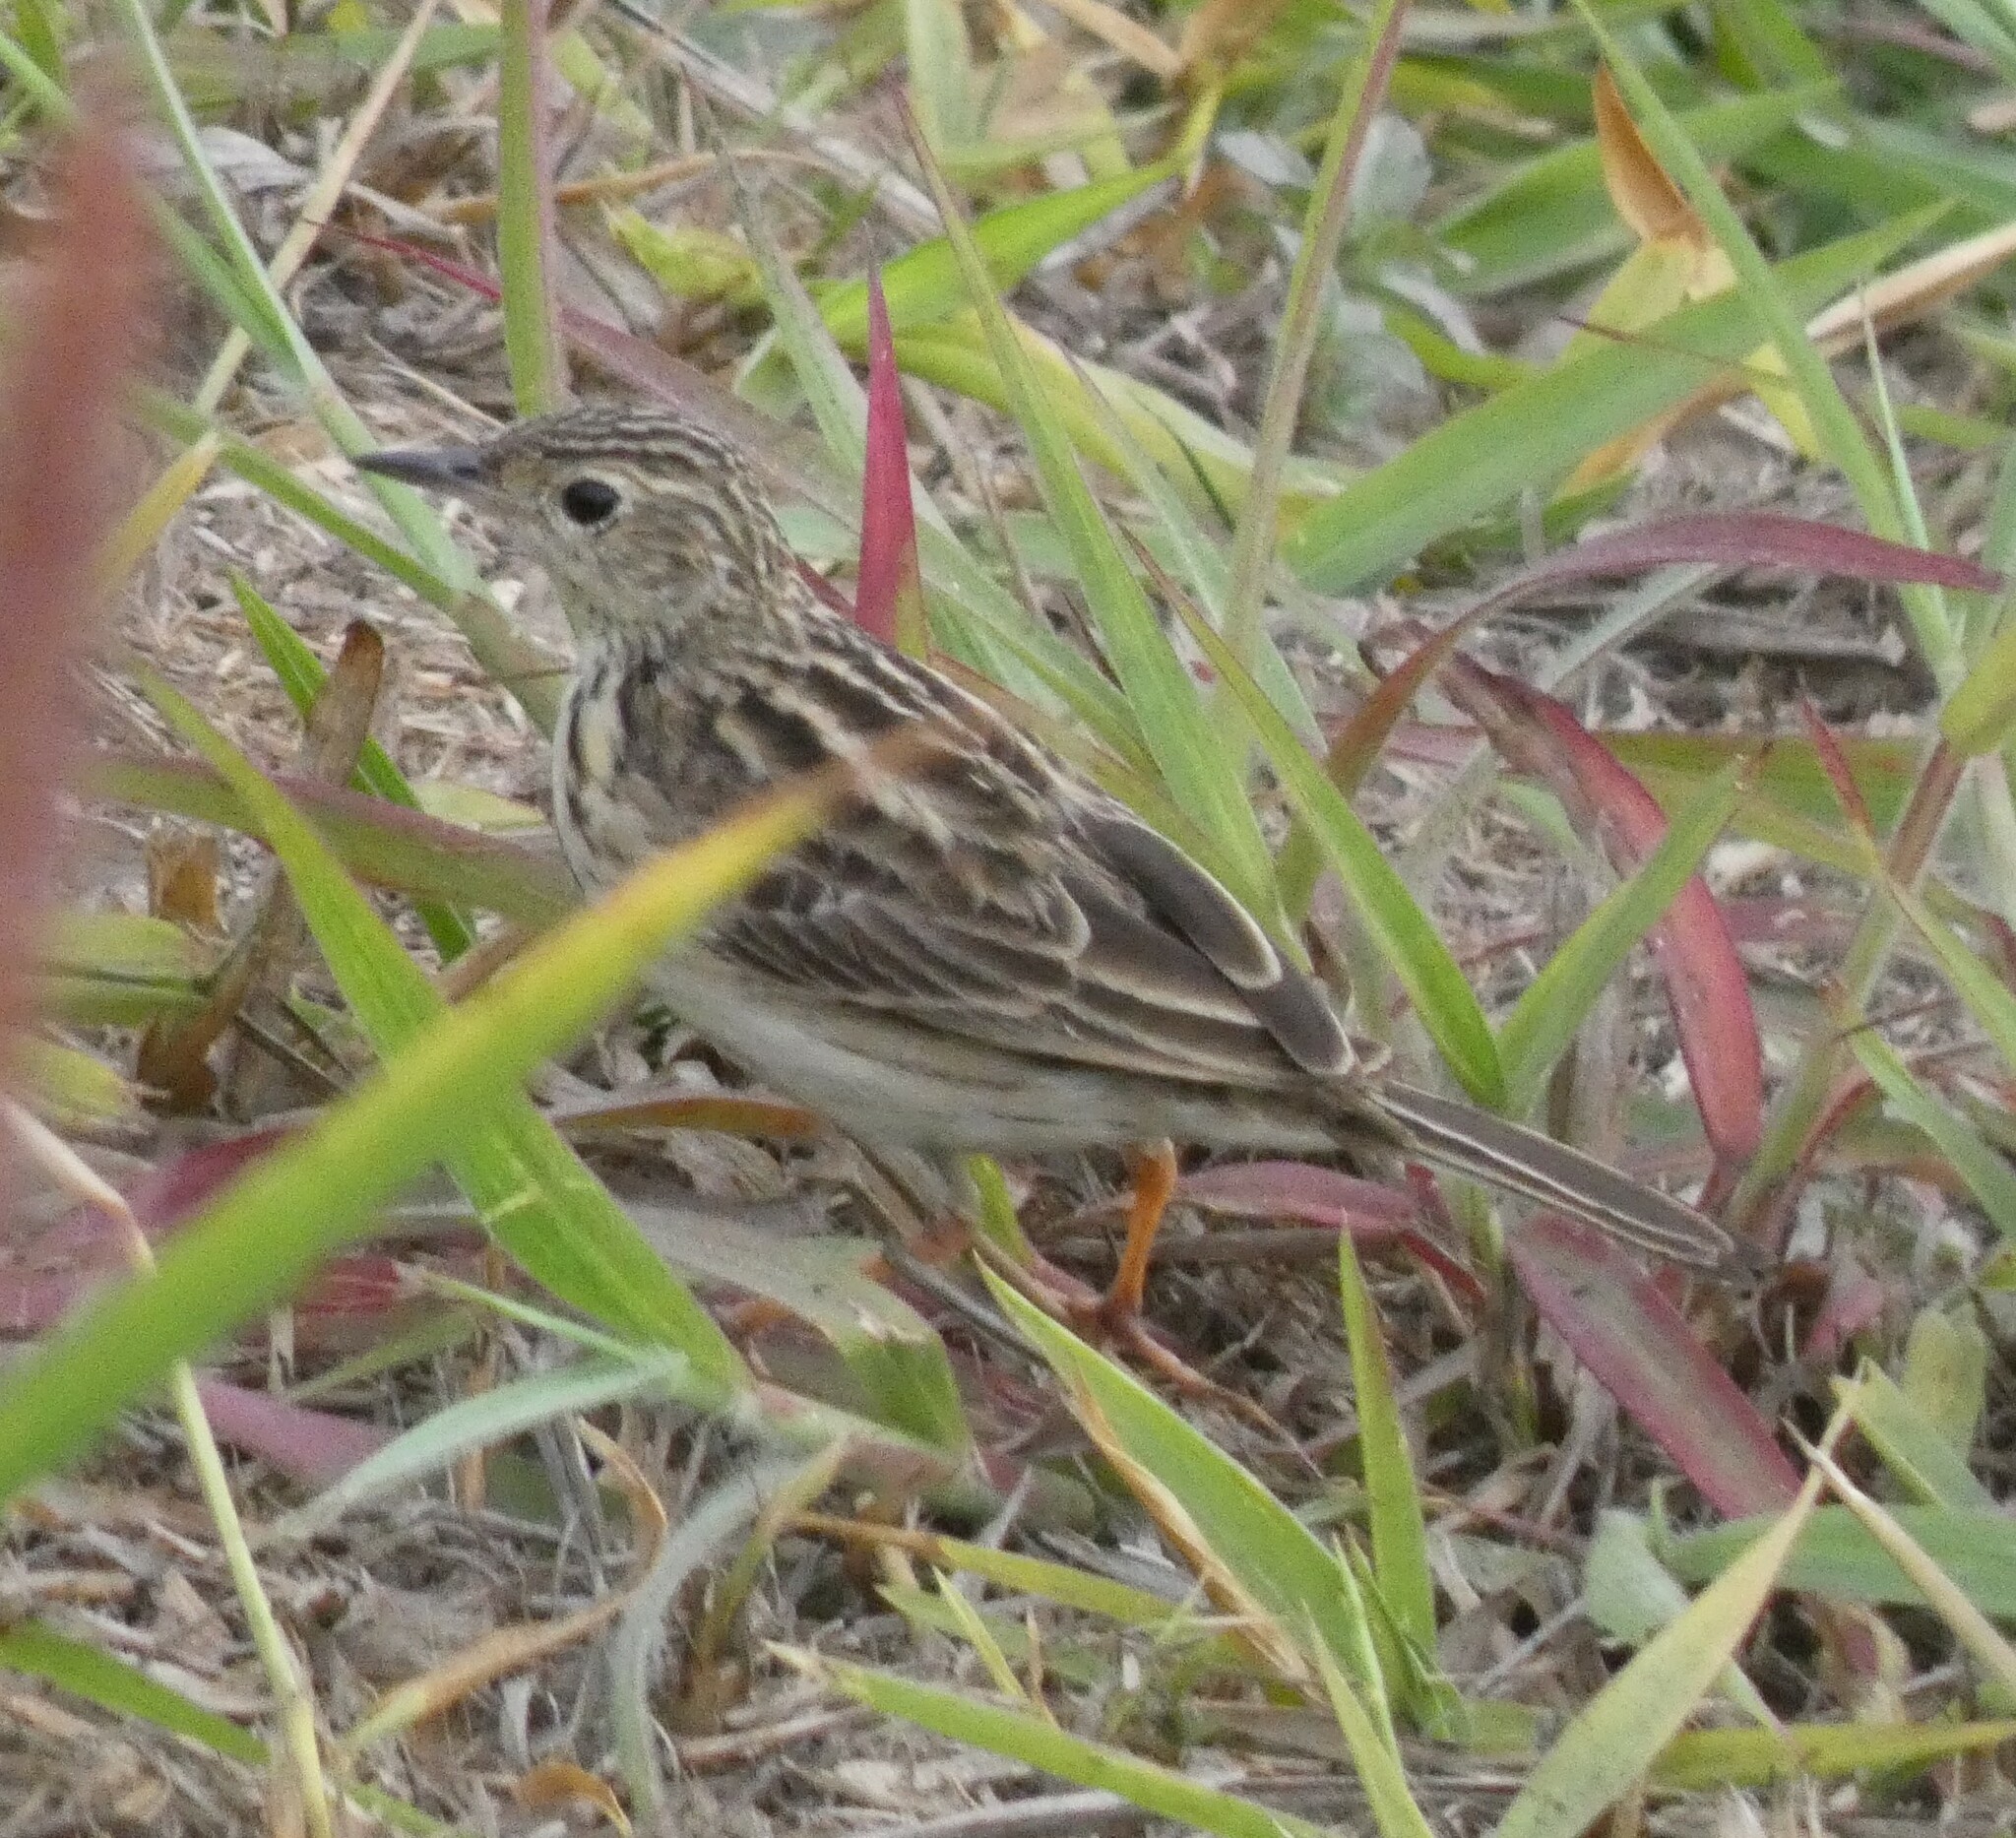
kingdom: Animalia
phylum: Chordata
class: Aves
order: Passeriformes
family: Motacillidae
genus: Anthus
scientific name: Anthus chii
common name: Yellowish pipit
